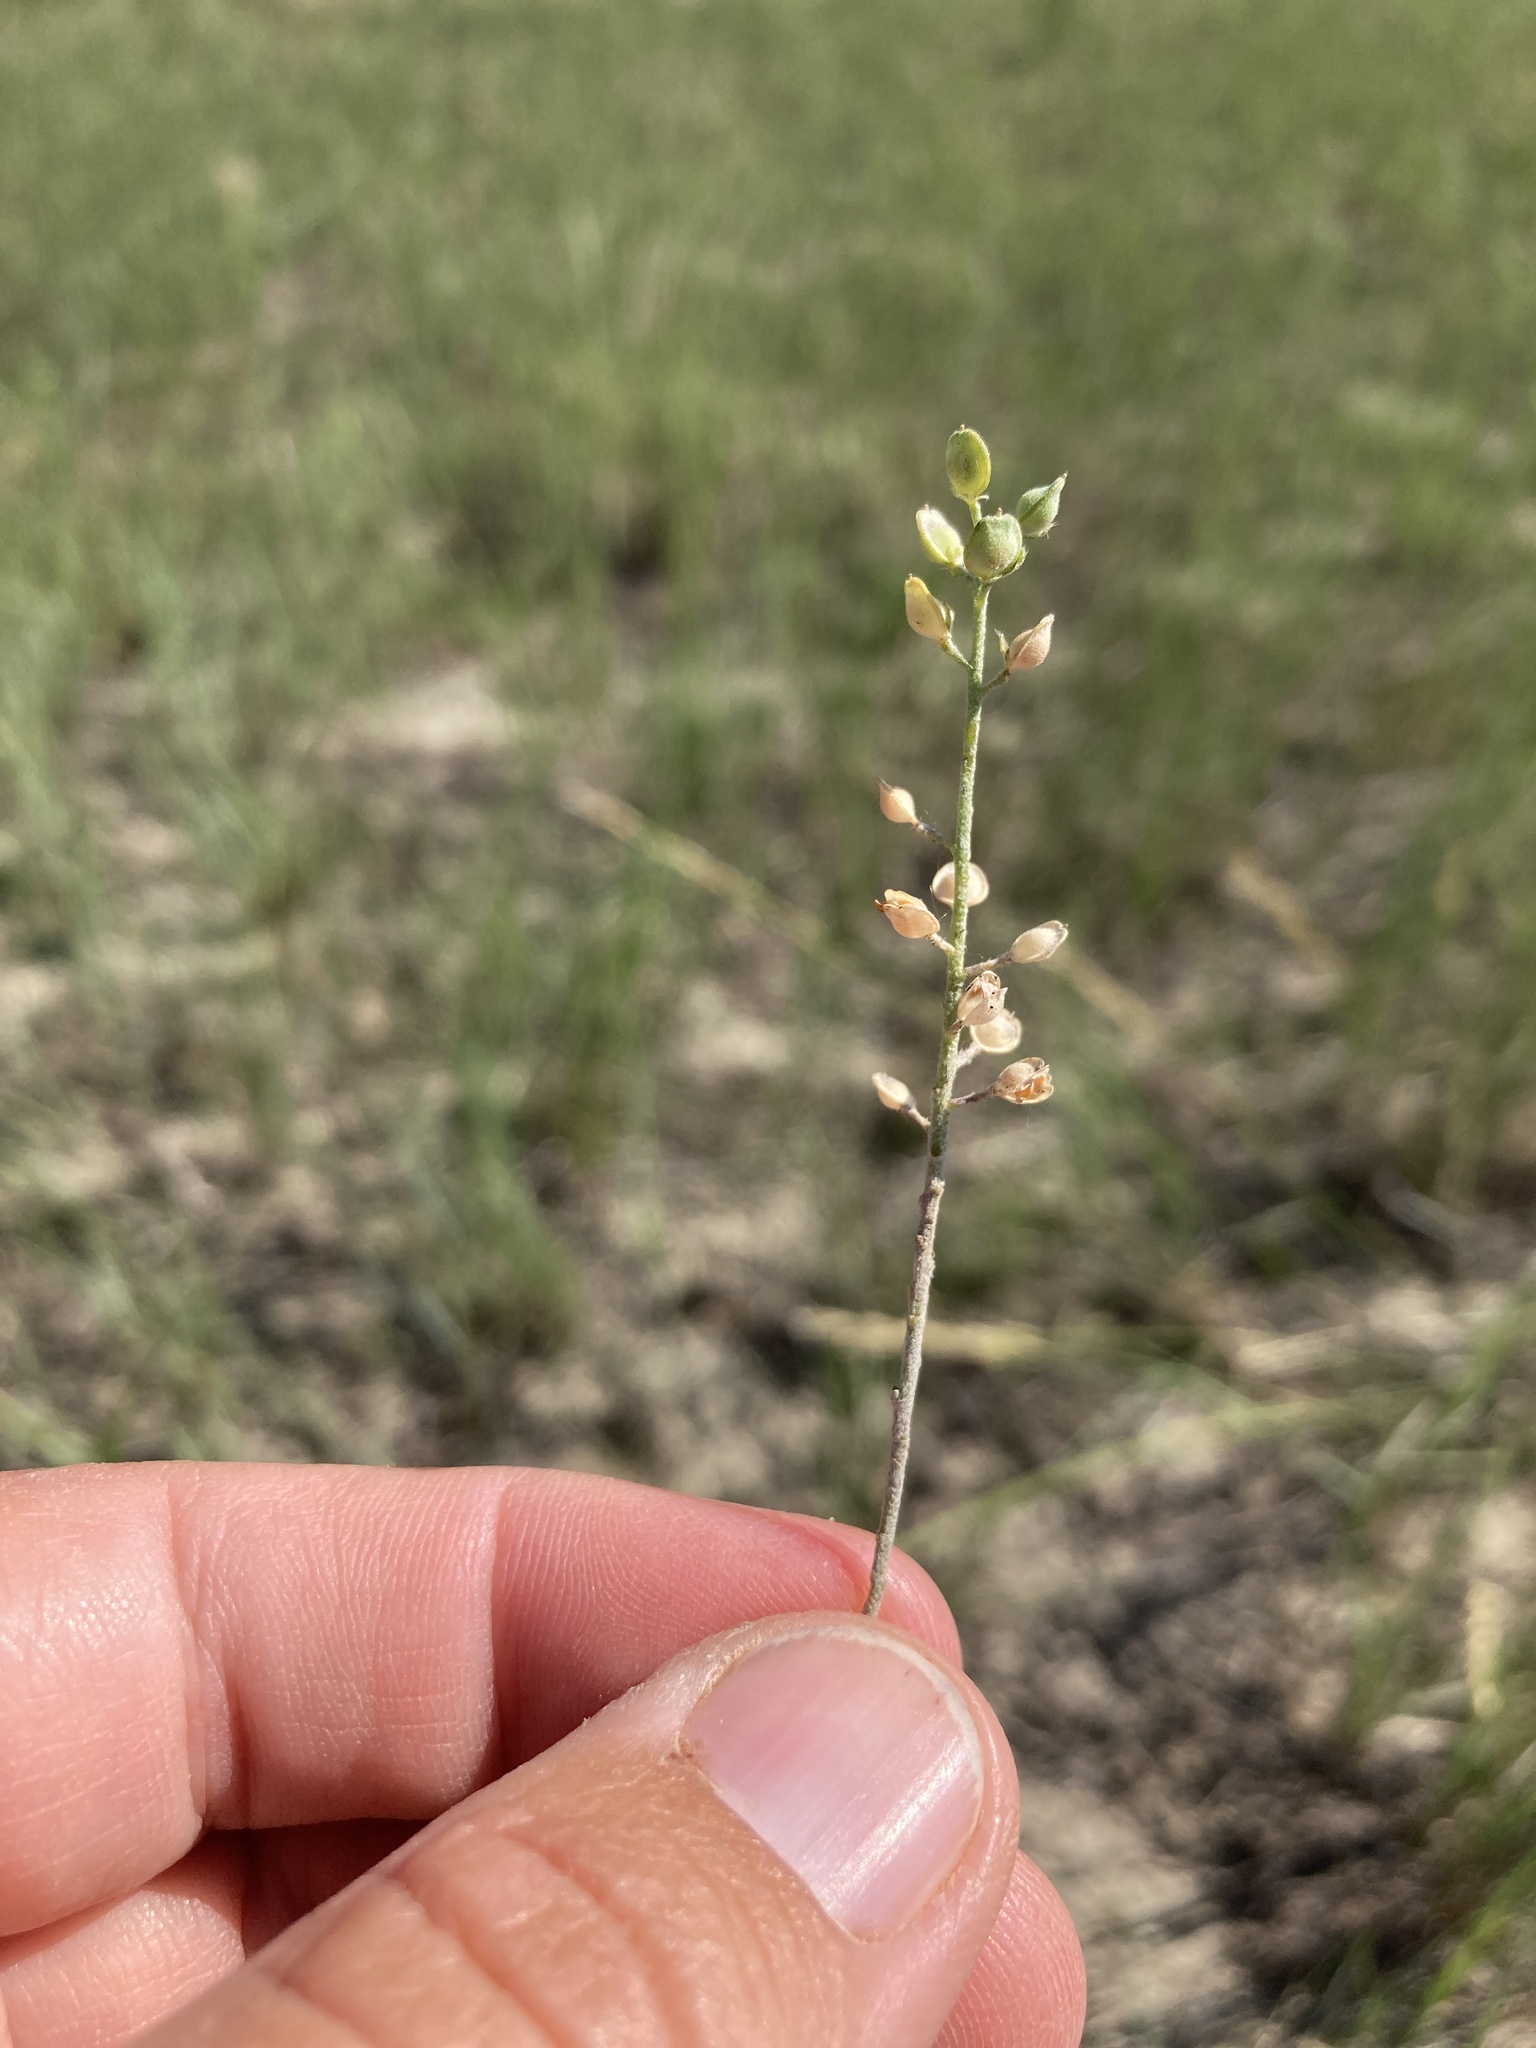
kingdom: Plantae
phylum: Tracheophyta
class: Magnoliopsida
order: Brassicales
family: Brassicaceae
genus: Alyssum
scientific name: Alyssum turkestanicum
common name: Desert alyssum
